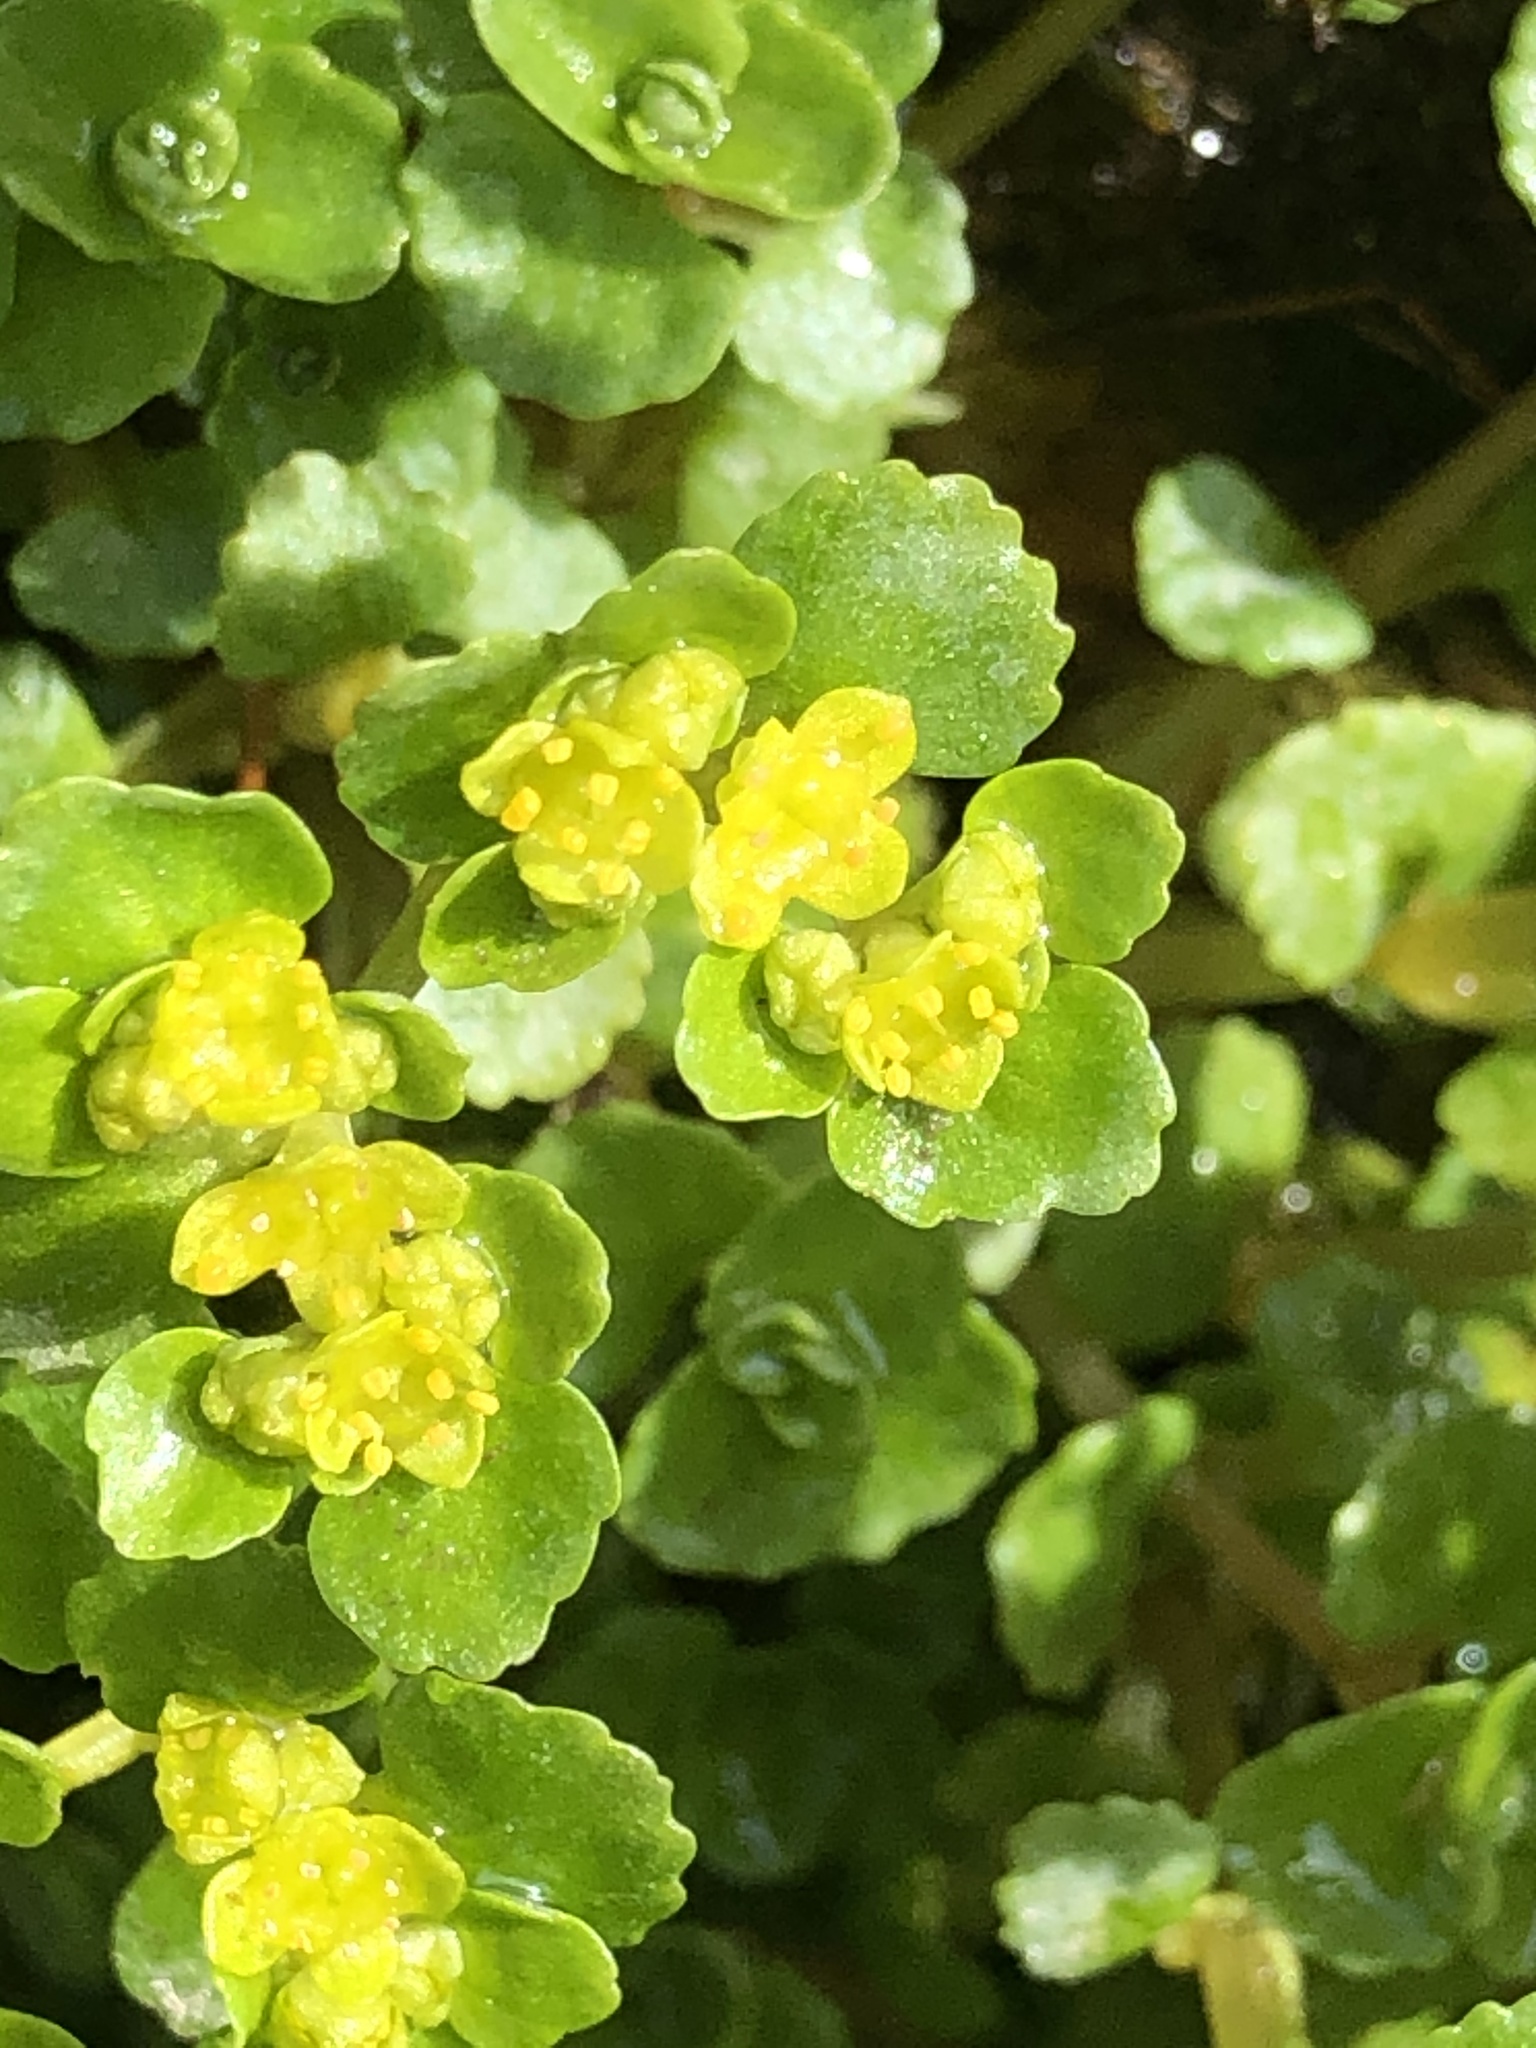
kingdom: Plantae
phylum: Tracheophyta
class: Magnoliopsida
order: Saxifragales
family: Saxifragaceae
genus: Chrysosplenium
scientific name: Chrysosplenium oppositifolium
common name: Opposite-leaved golden-saxifrage
